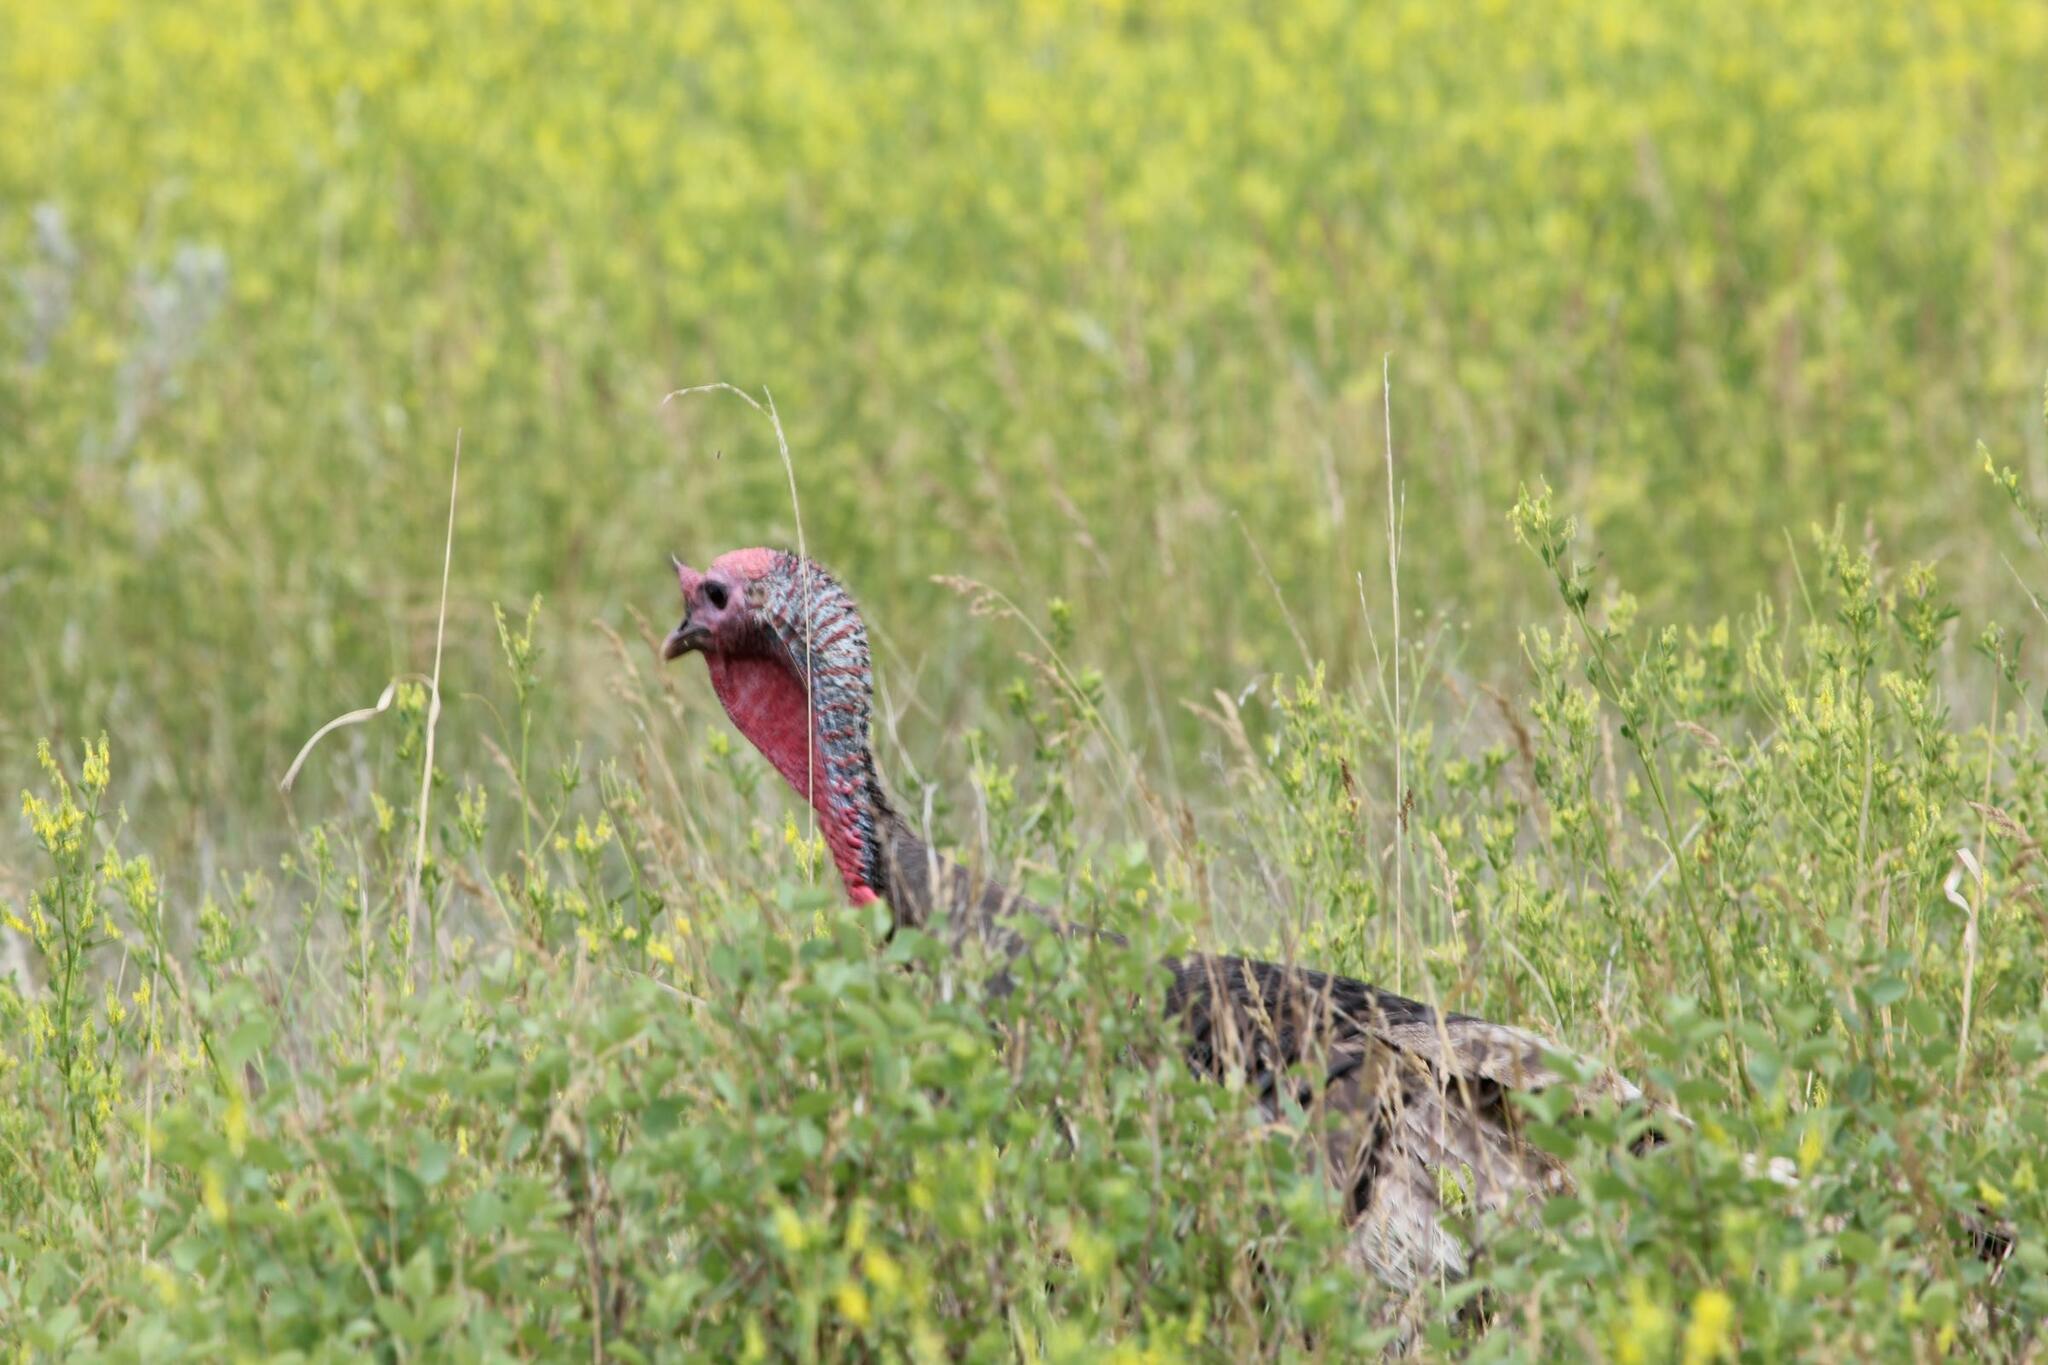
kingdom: Animalia
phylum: Chordata
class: Aves
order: Galliformes
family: Phasianidae
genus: Meleagris
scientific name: Meleagris gallopavo
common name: Wild turkey
